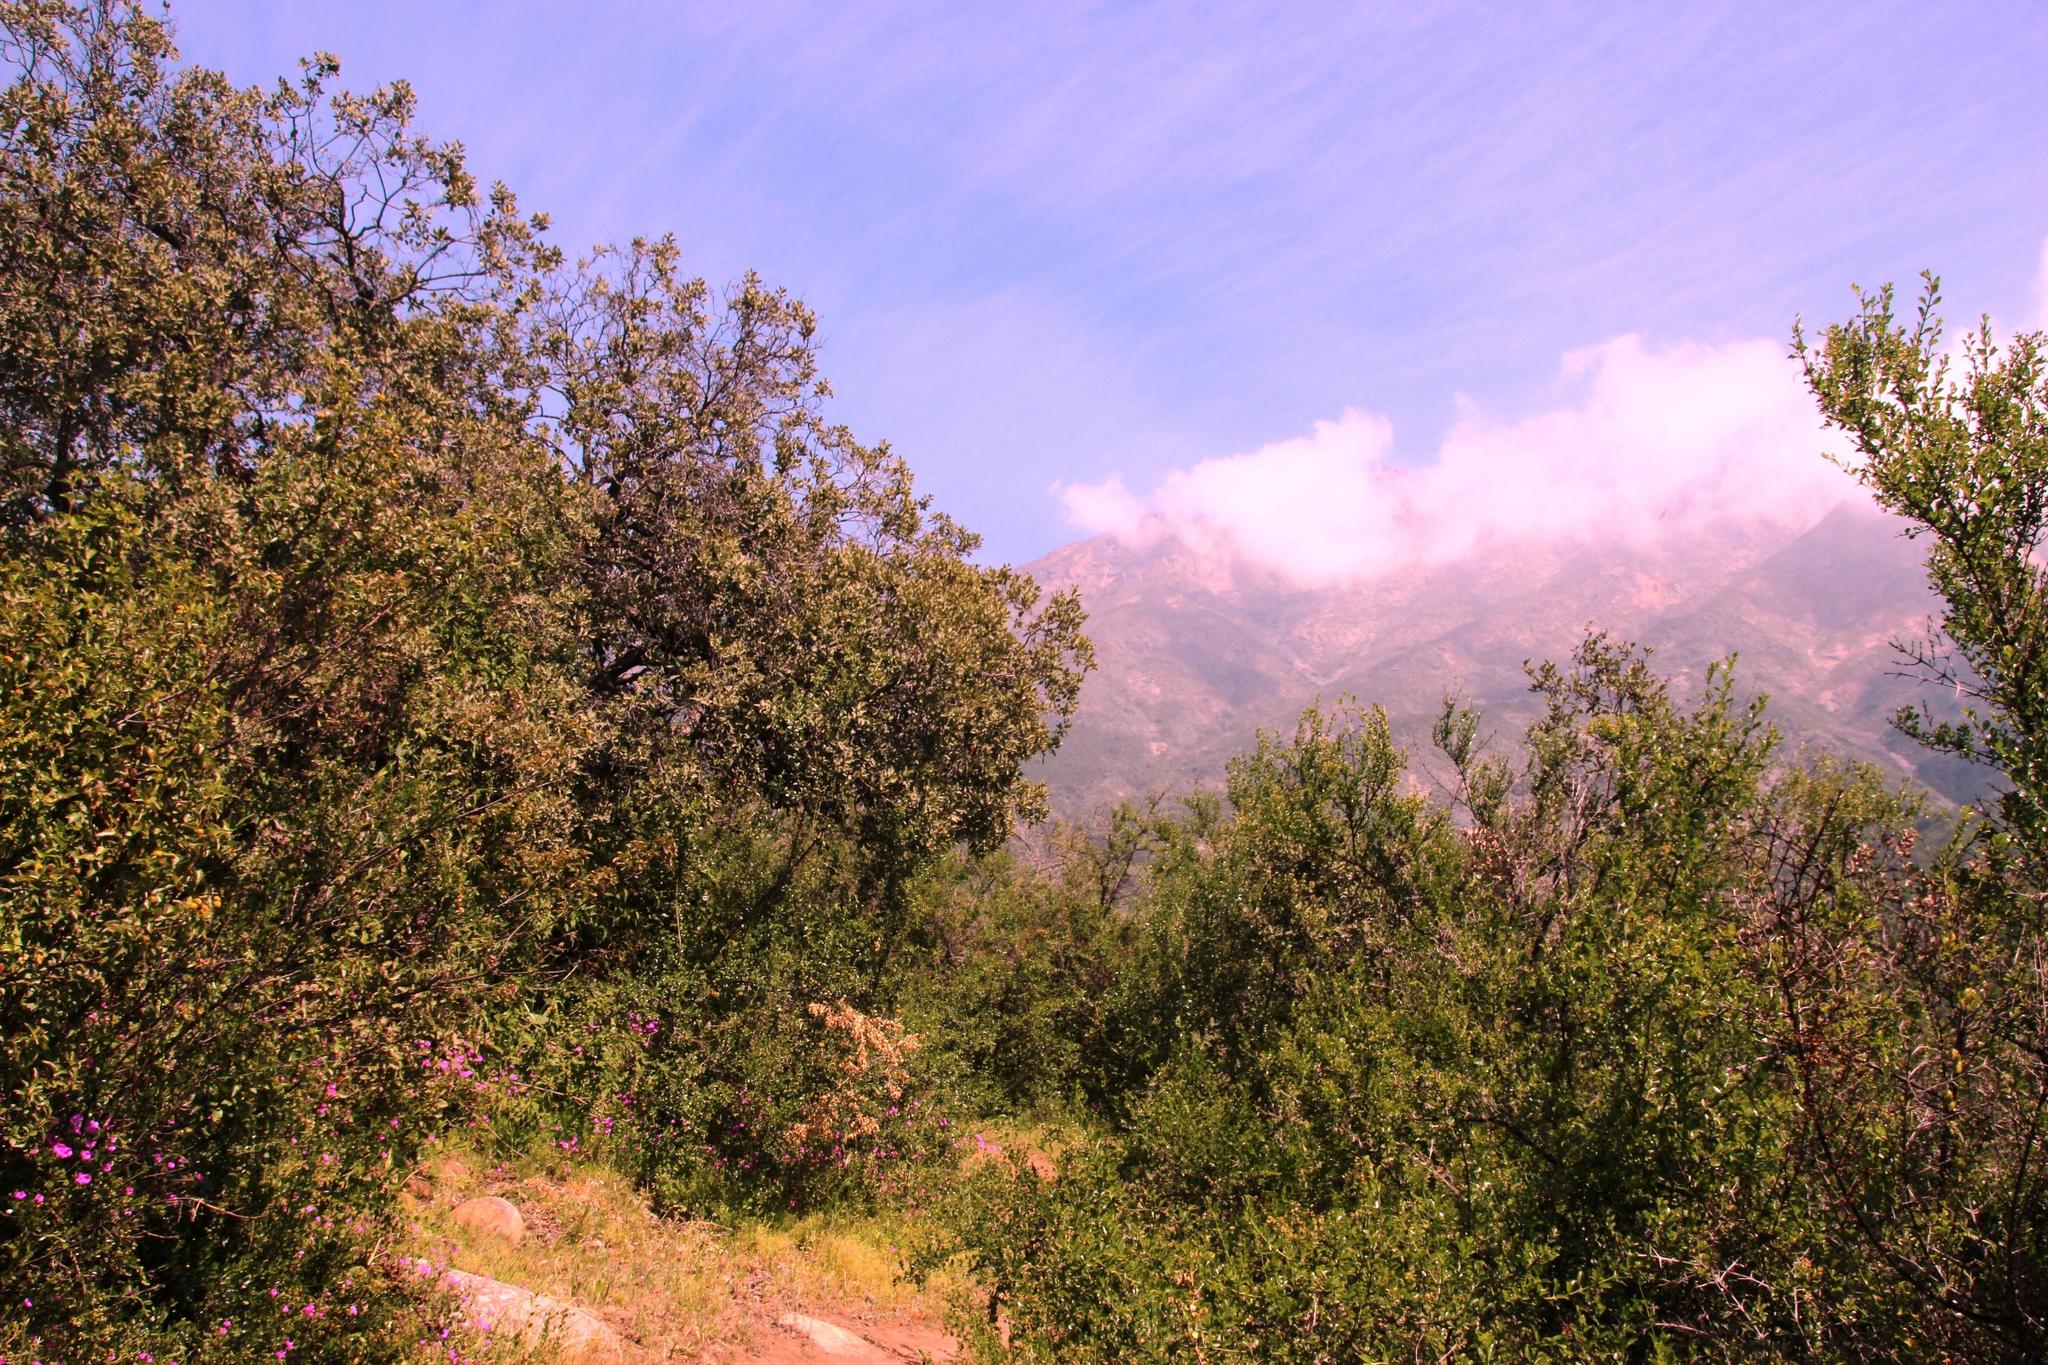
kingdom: Plantae
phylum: Tracheophyta
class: Magnoliopsida
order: Asterales
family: Asteraceae
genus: Podanthus
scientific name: Podanthus mitiqui
